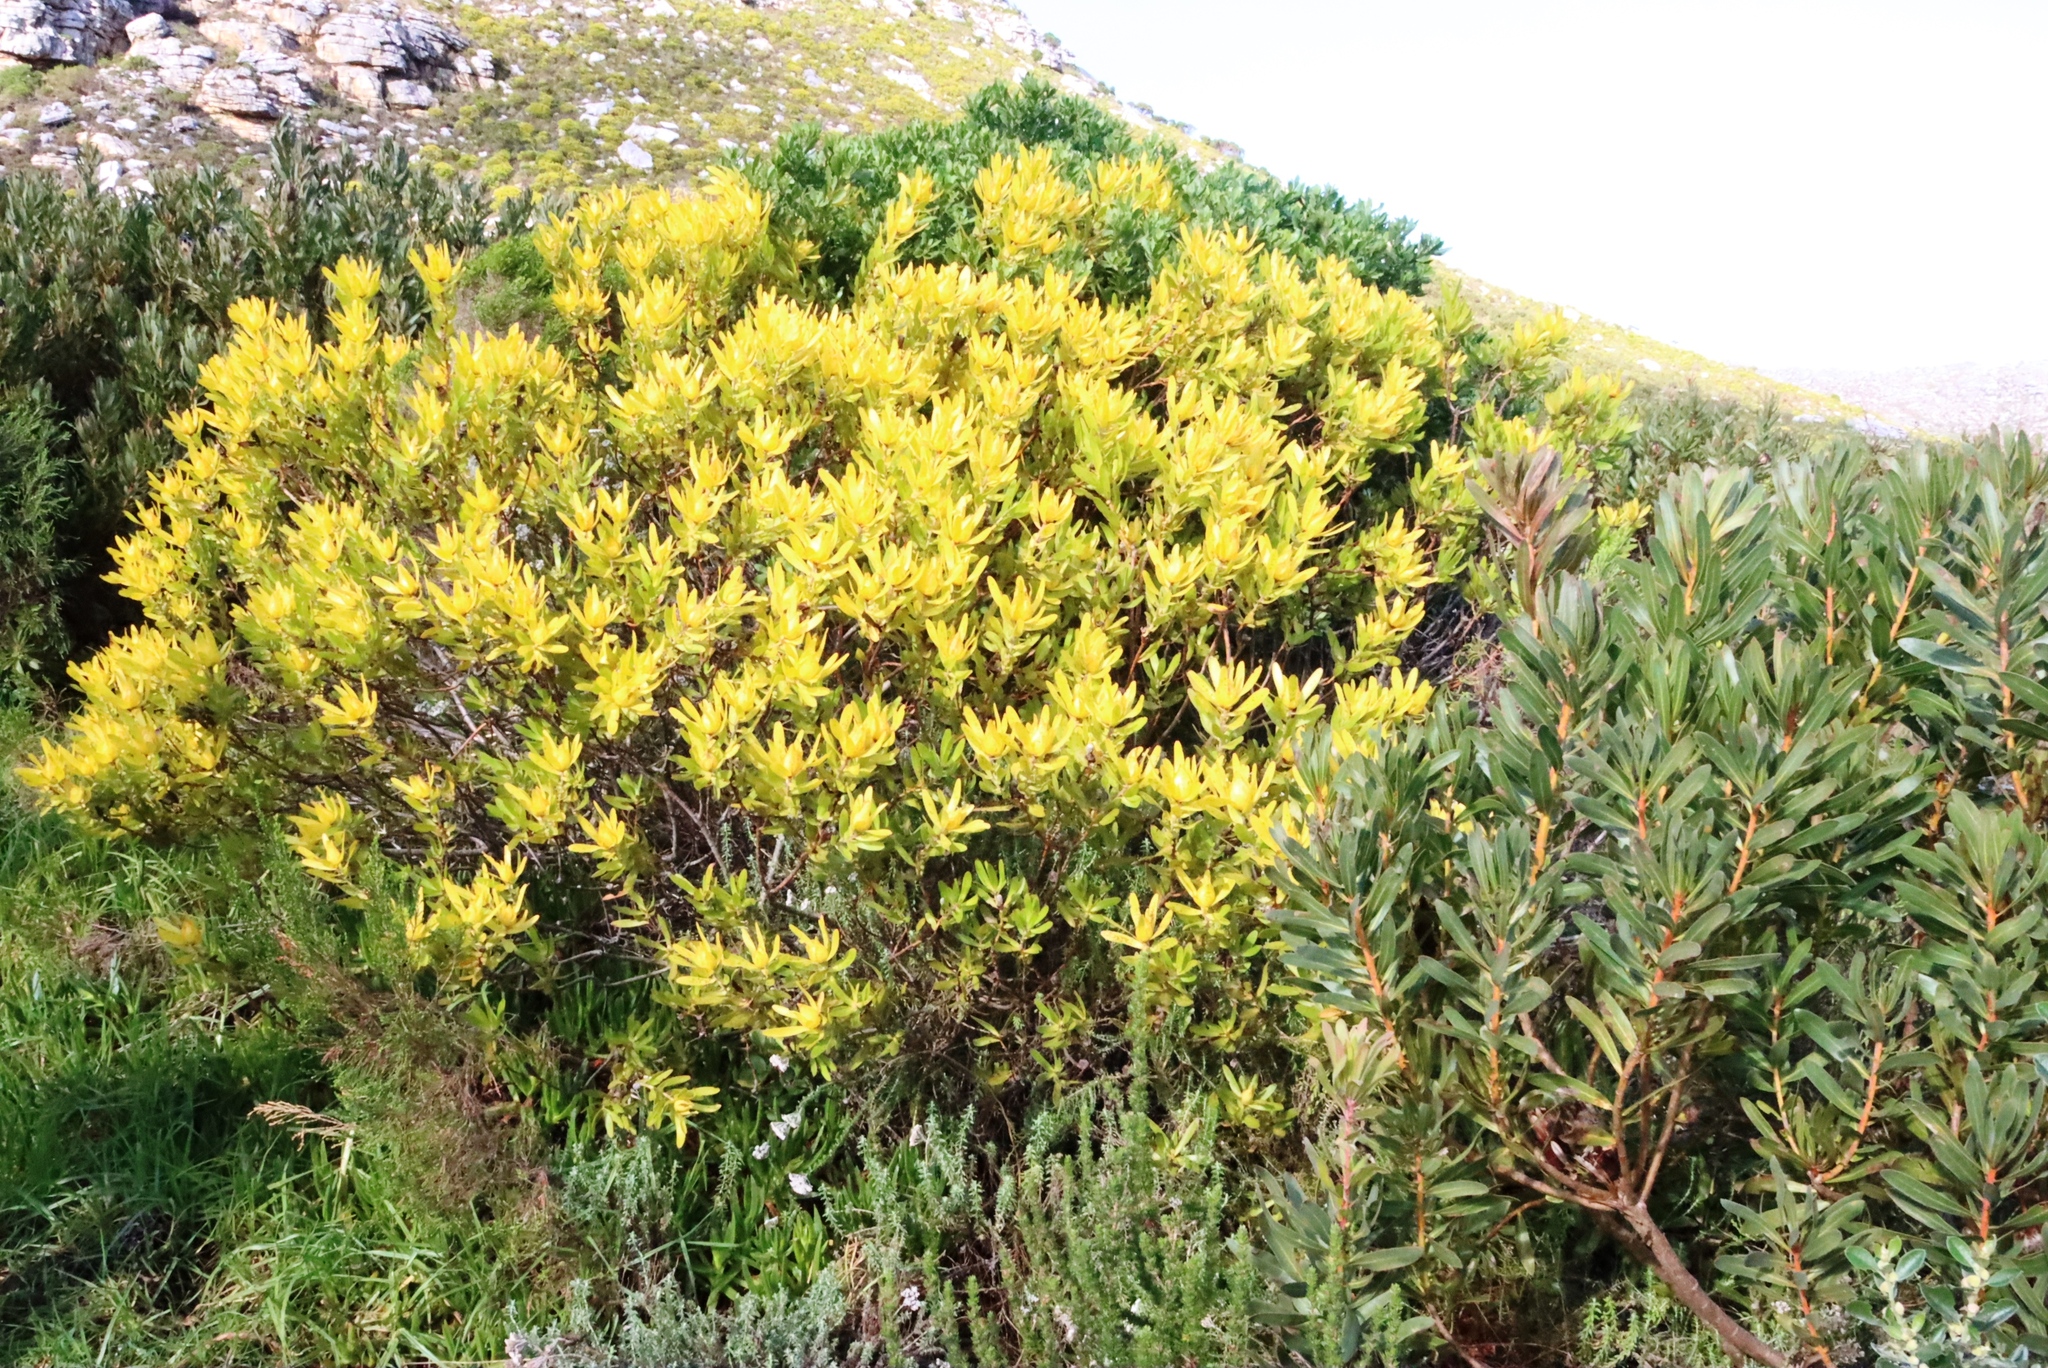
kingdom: Plantae
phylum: Tracheophyta
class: Magnoliopsida
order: Proteales
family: Proteaceae
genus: Leucadendron
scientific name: Leucadendron laureolum
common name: Golden sunshinebush
